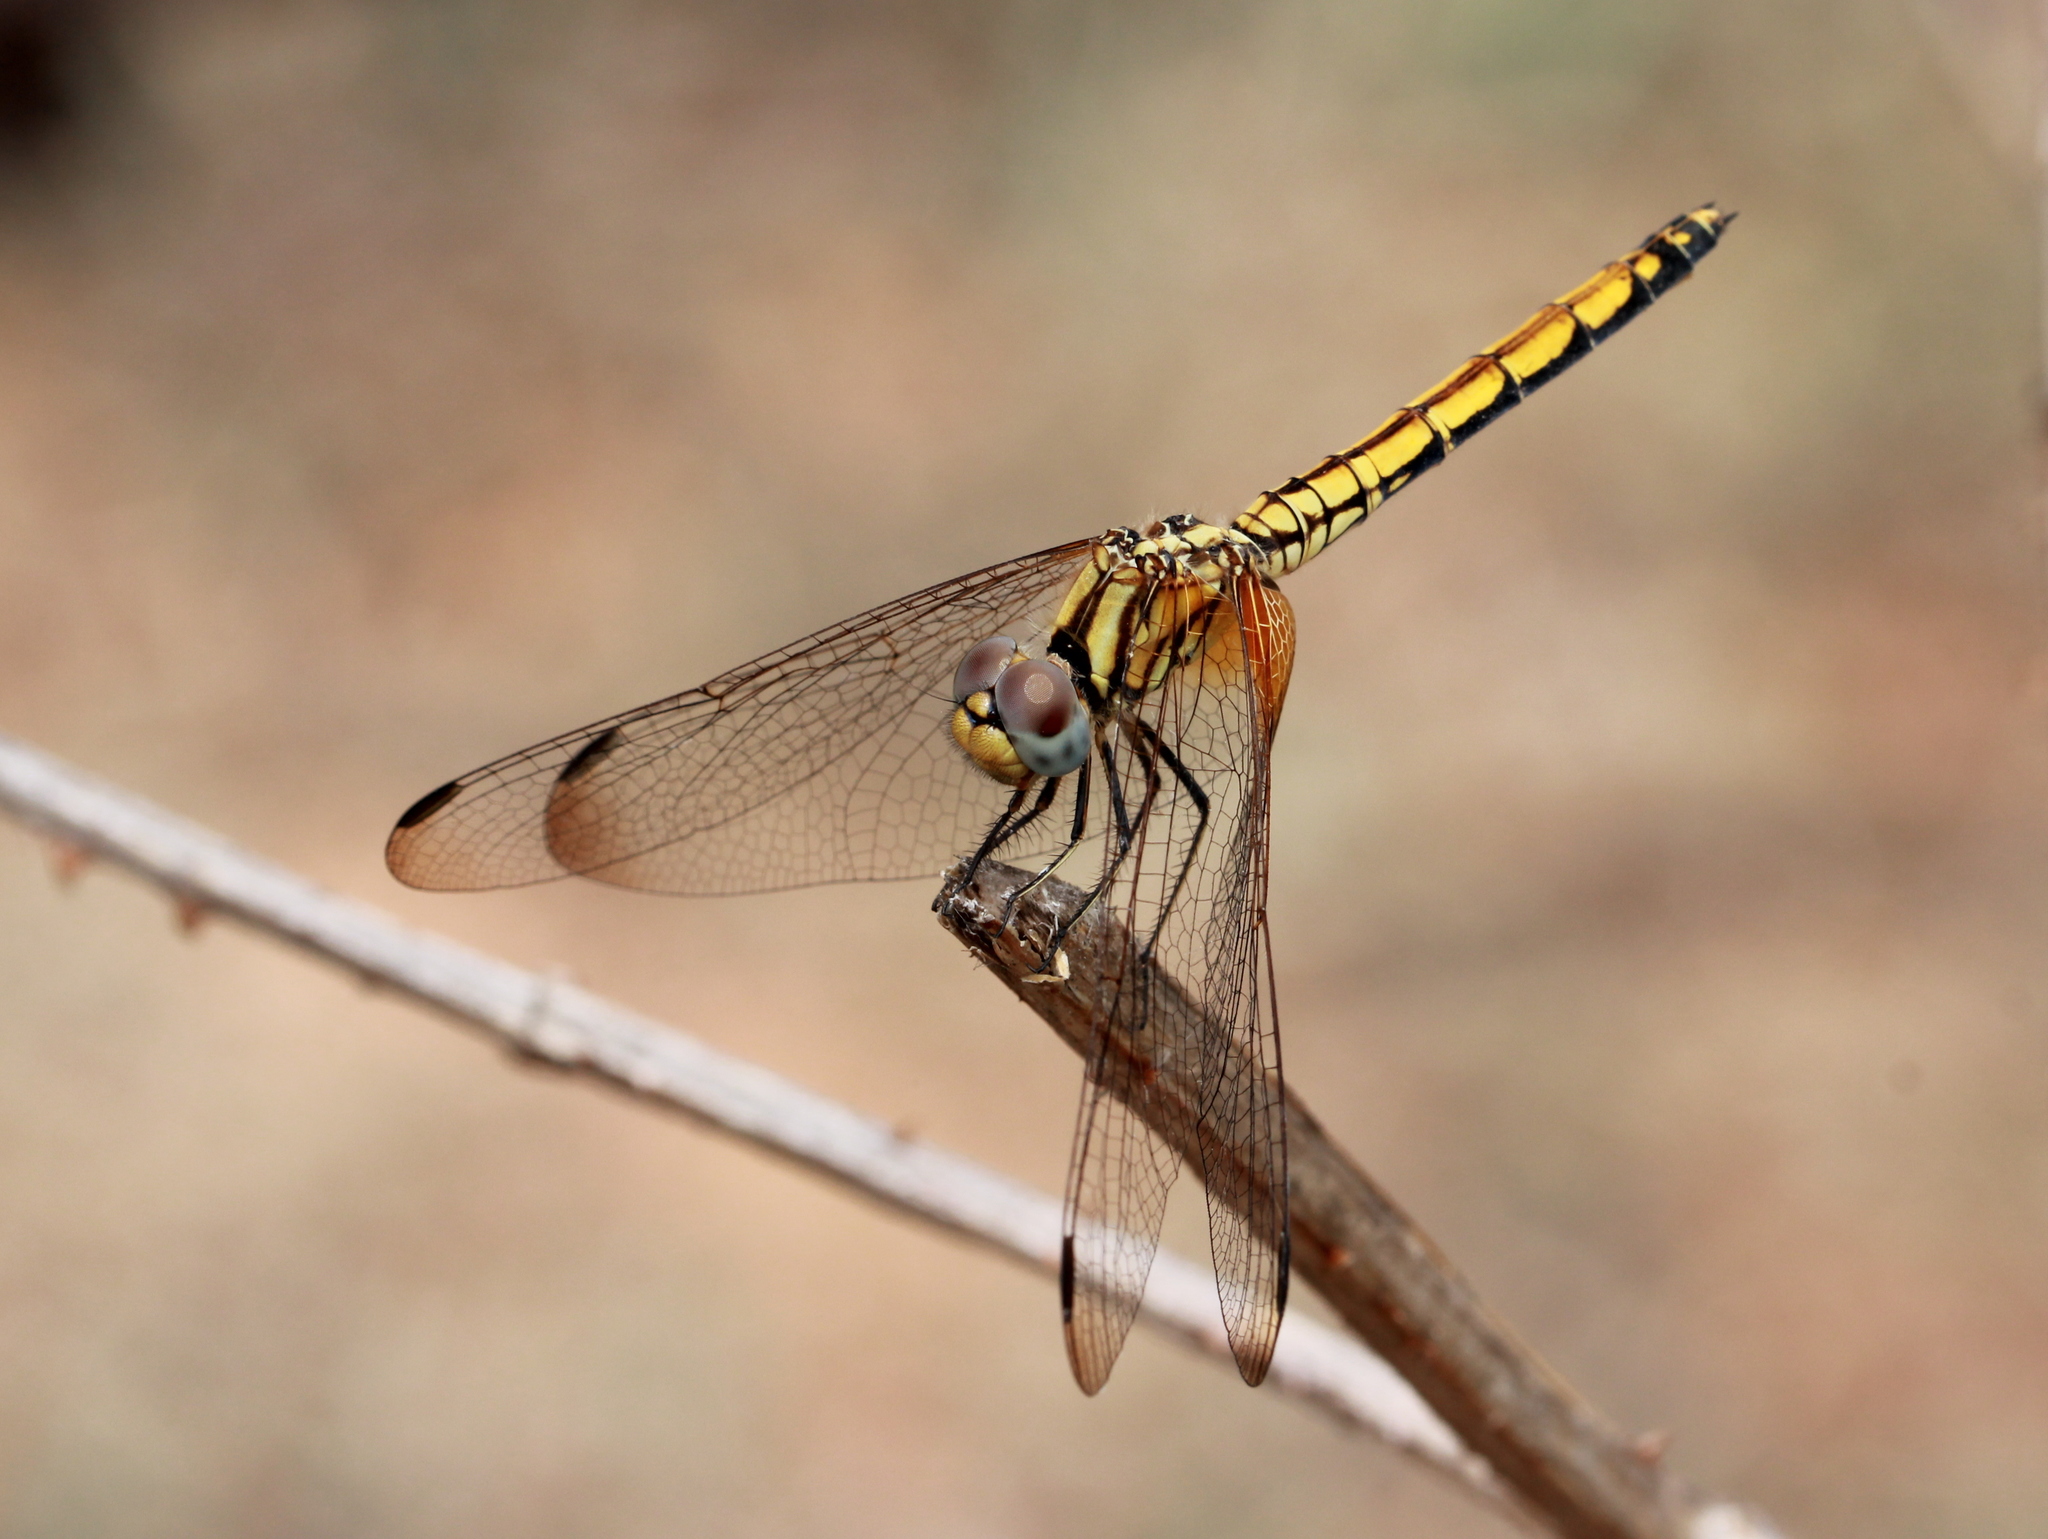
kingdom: Animalia
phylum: Arthropoda
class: Insecta
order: Odonata
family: Libellulidae
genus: Trithemis
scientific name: Trithemis aurora
